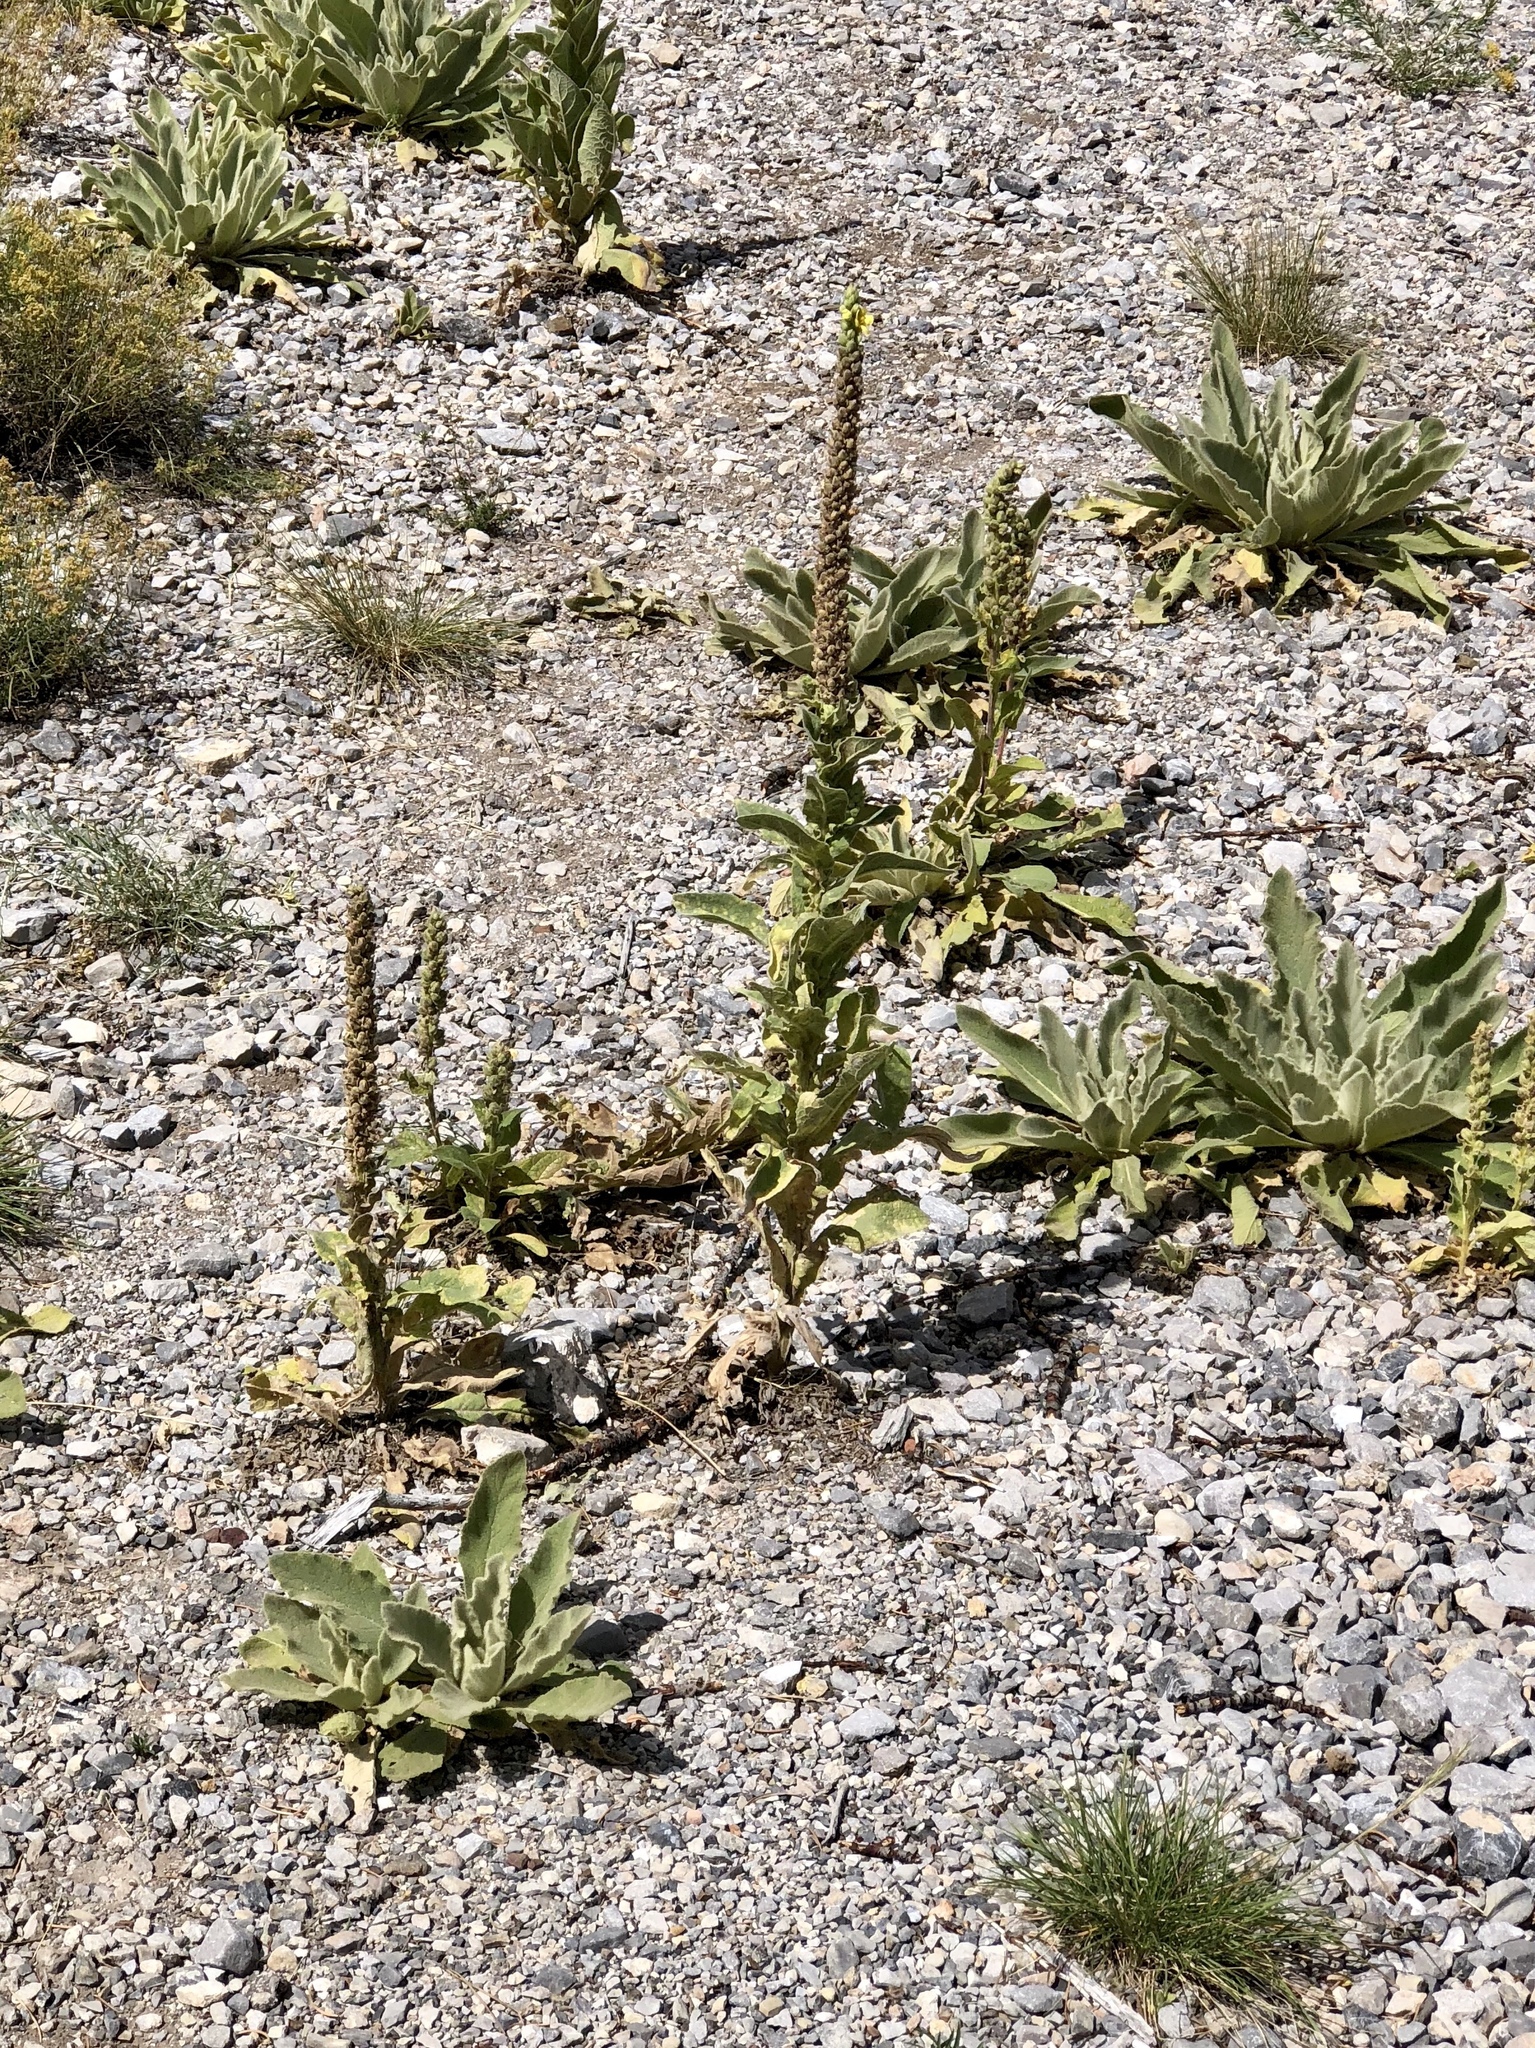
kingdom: Plantae
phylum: Tracheophyta
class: Magnoliopsida
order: Lamiales
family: Scrophulariaceae
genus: Verbascum
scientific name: Verbascum thapsus
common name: Common mullein
